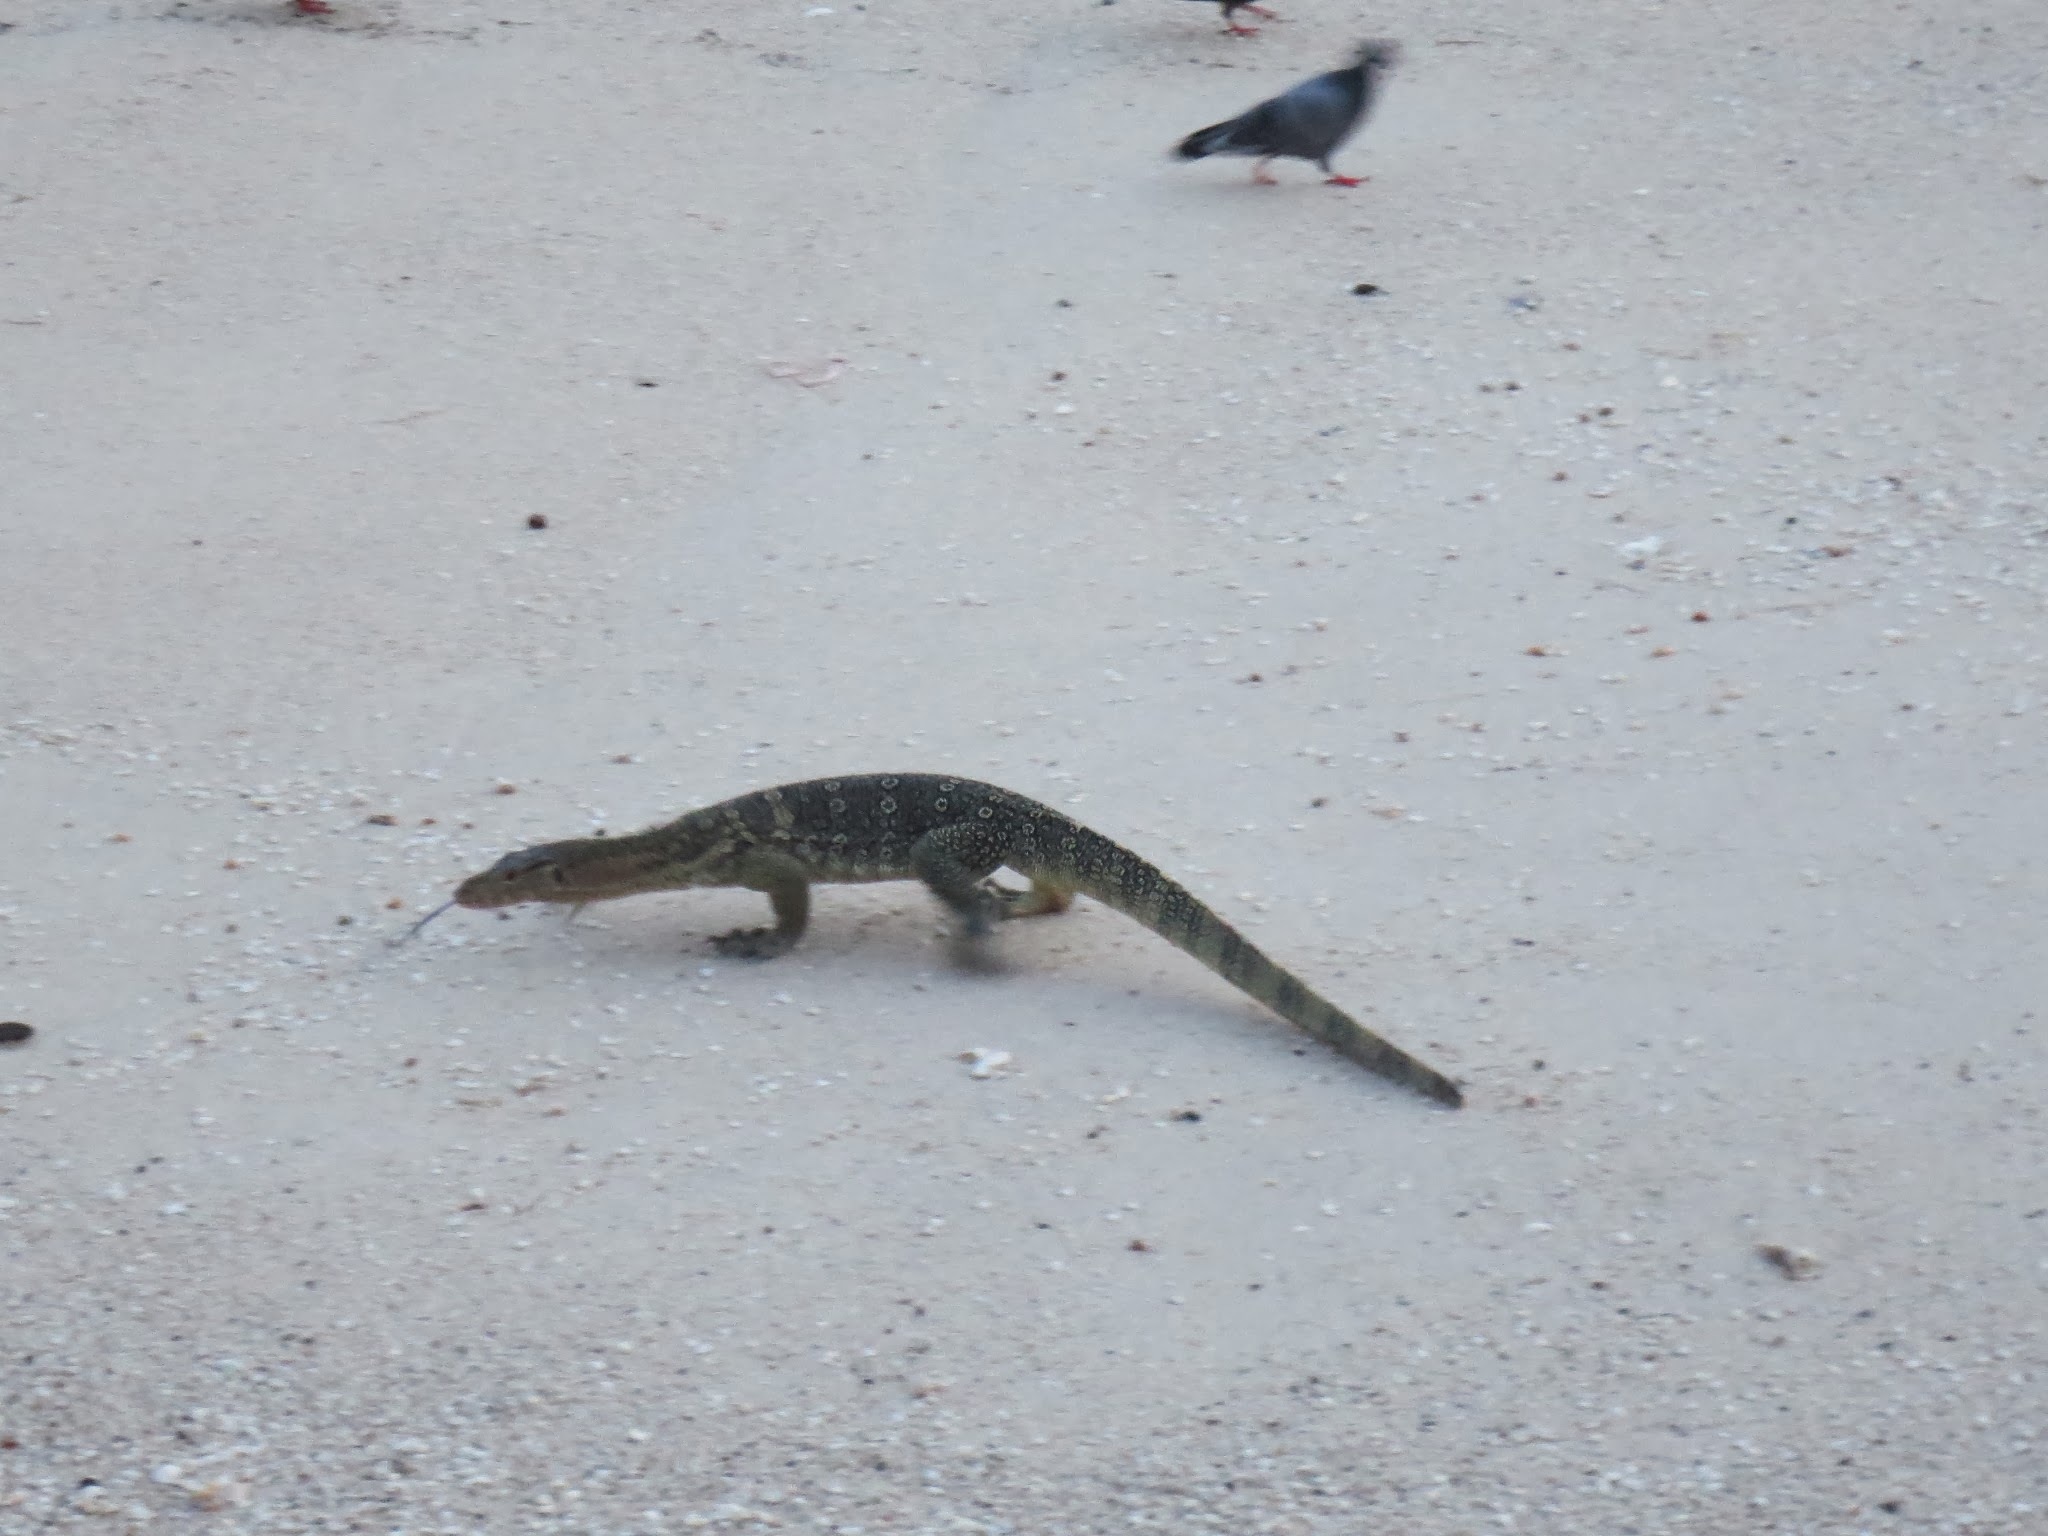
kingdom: Animalia
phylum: Chordata
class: Squamata
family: Varanidae
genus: Varanus
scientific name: Varanus salvator
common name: Common water monitor
